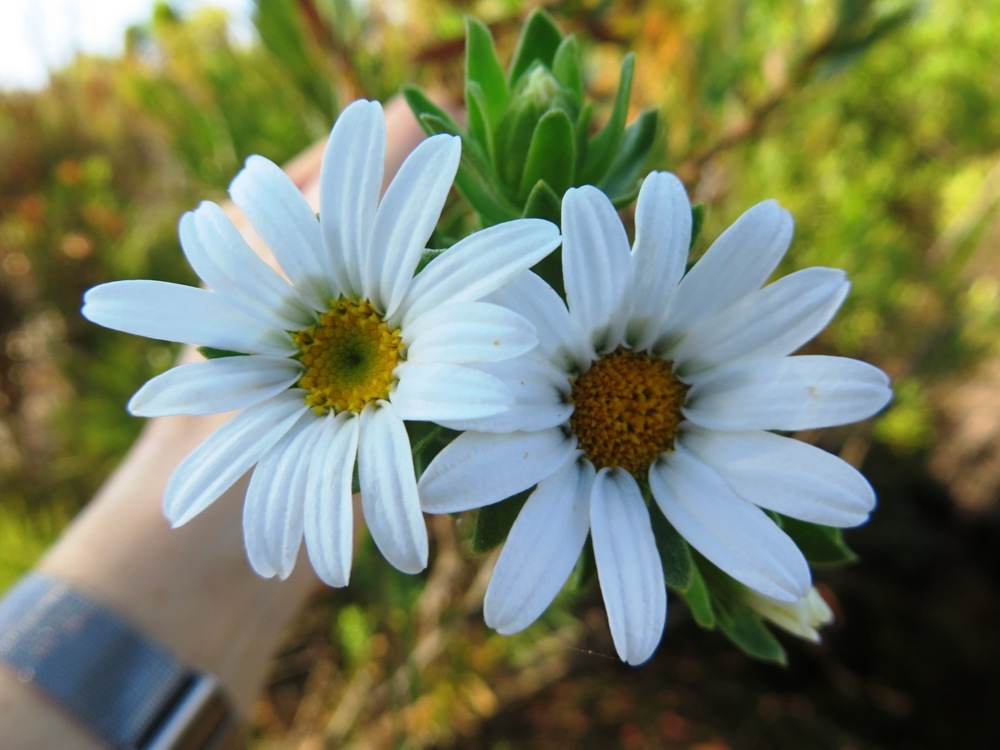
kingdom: Plantae
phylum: Tracheophyta
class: Magnoliopsida
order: Asterales
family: Asteraceae
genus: Osmitopsis
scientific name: Osmitopsis asteriscoides
